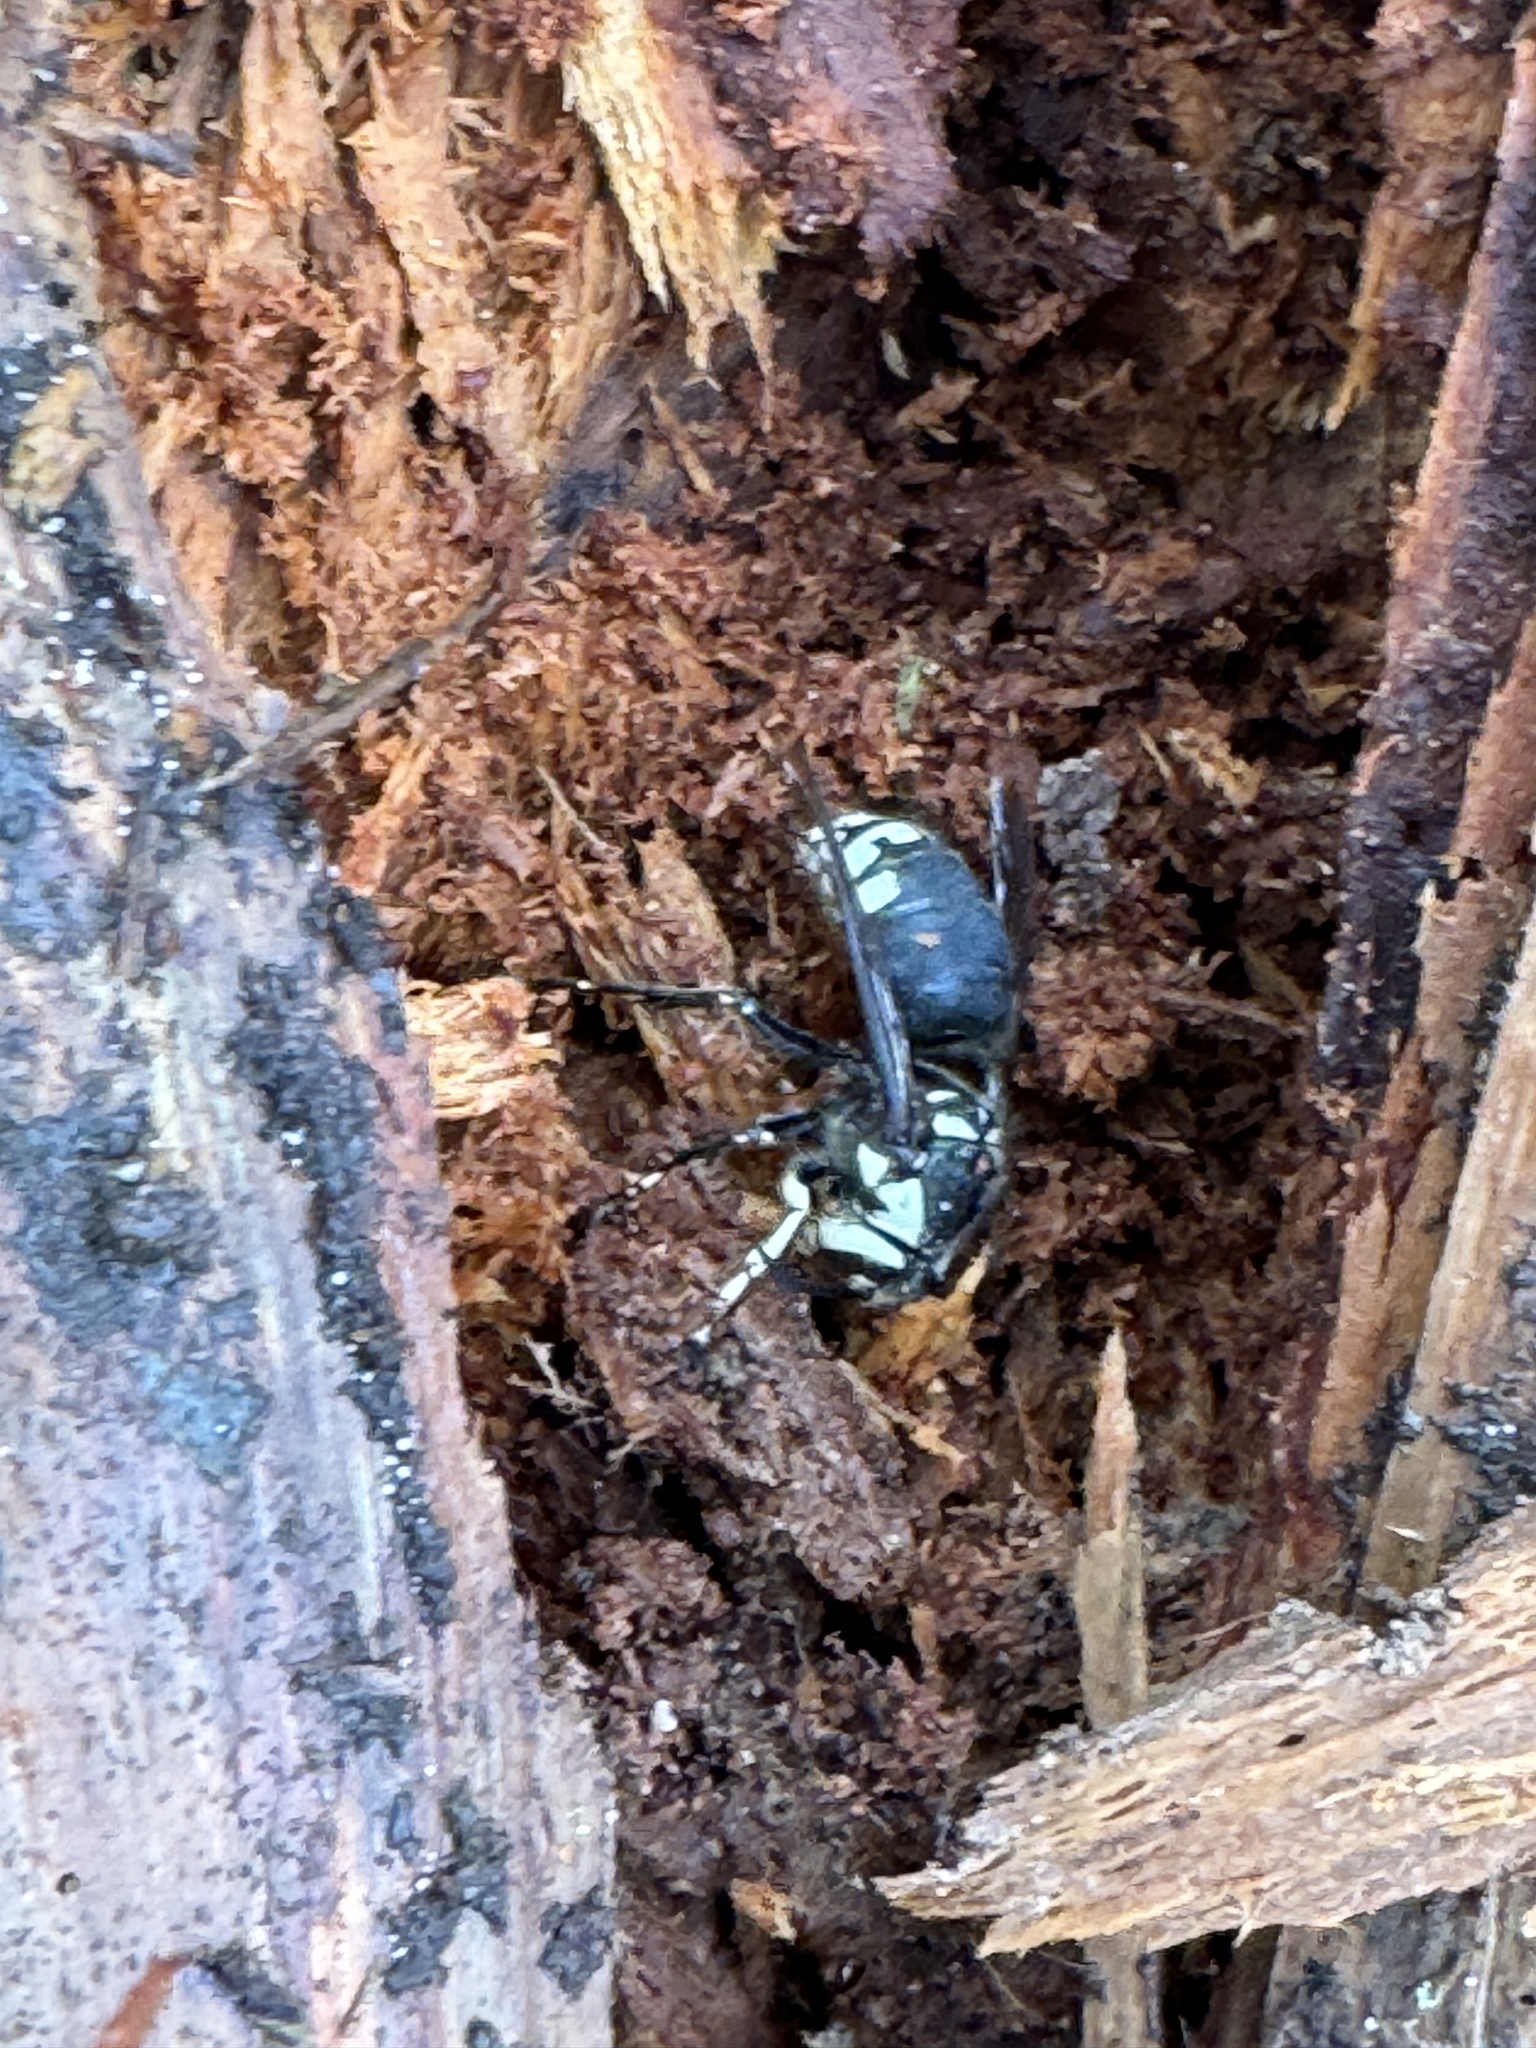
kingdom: Animalia
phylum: Arthropoda
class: Insecta
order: Hymenoptera
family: Vespidae
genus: Dolichovespula
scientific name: Dolichovespula maculata
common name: Bald-faced hornet
